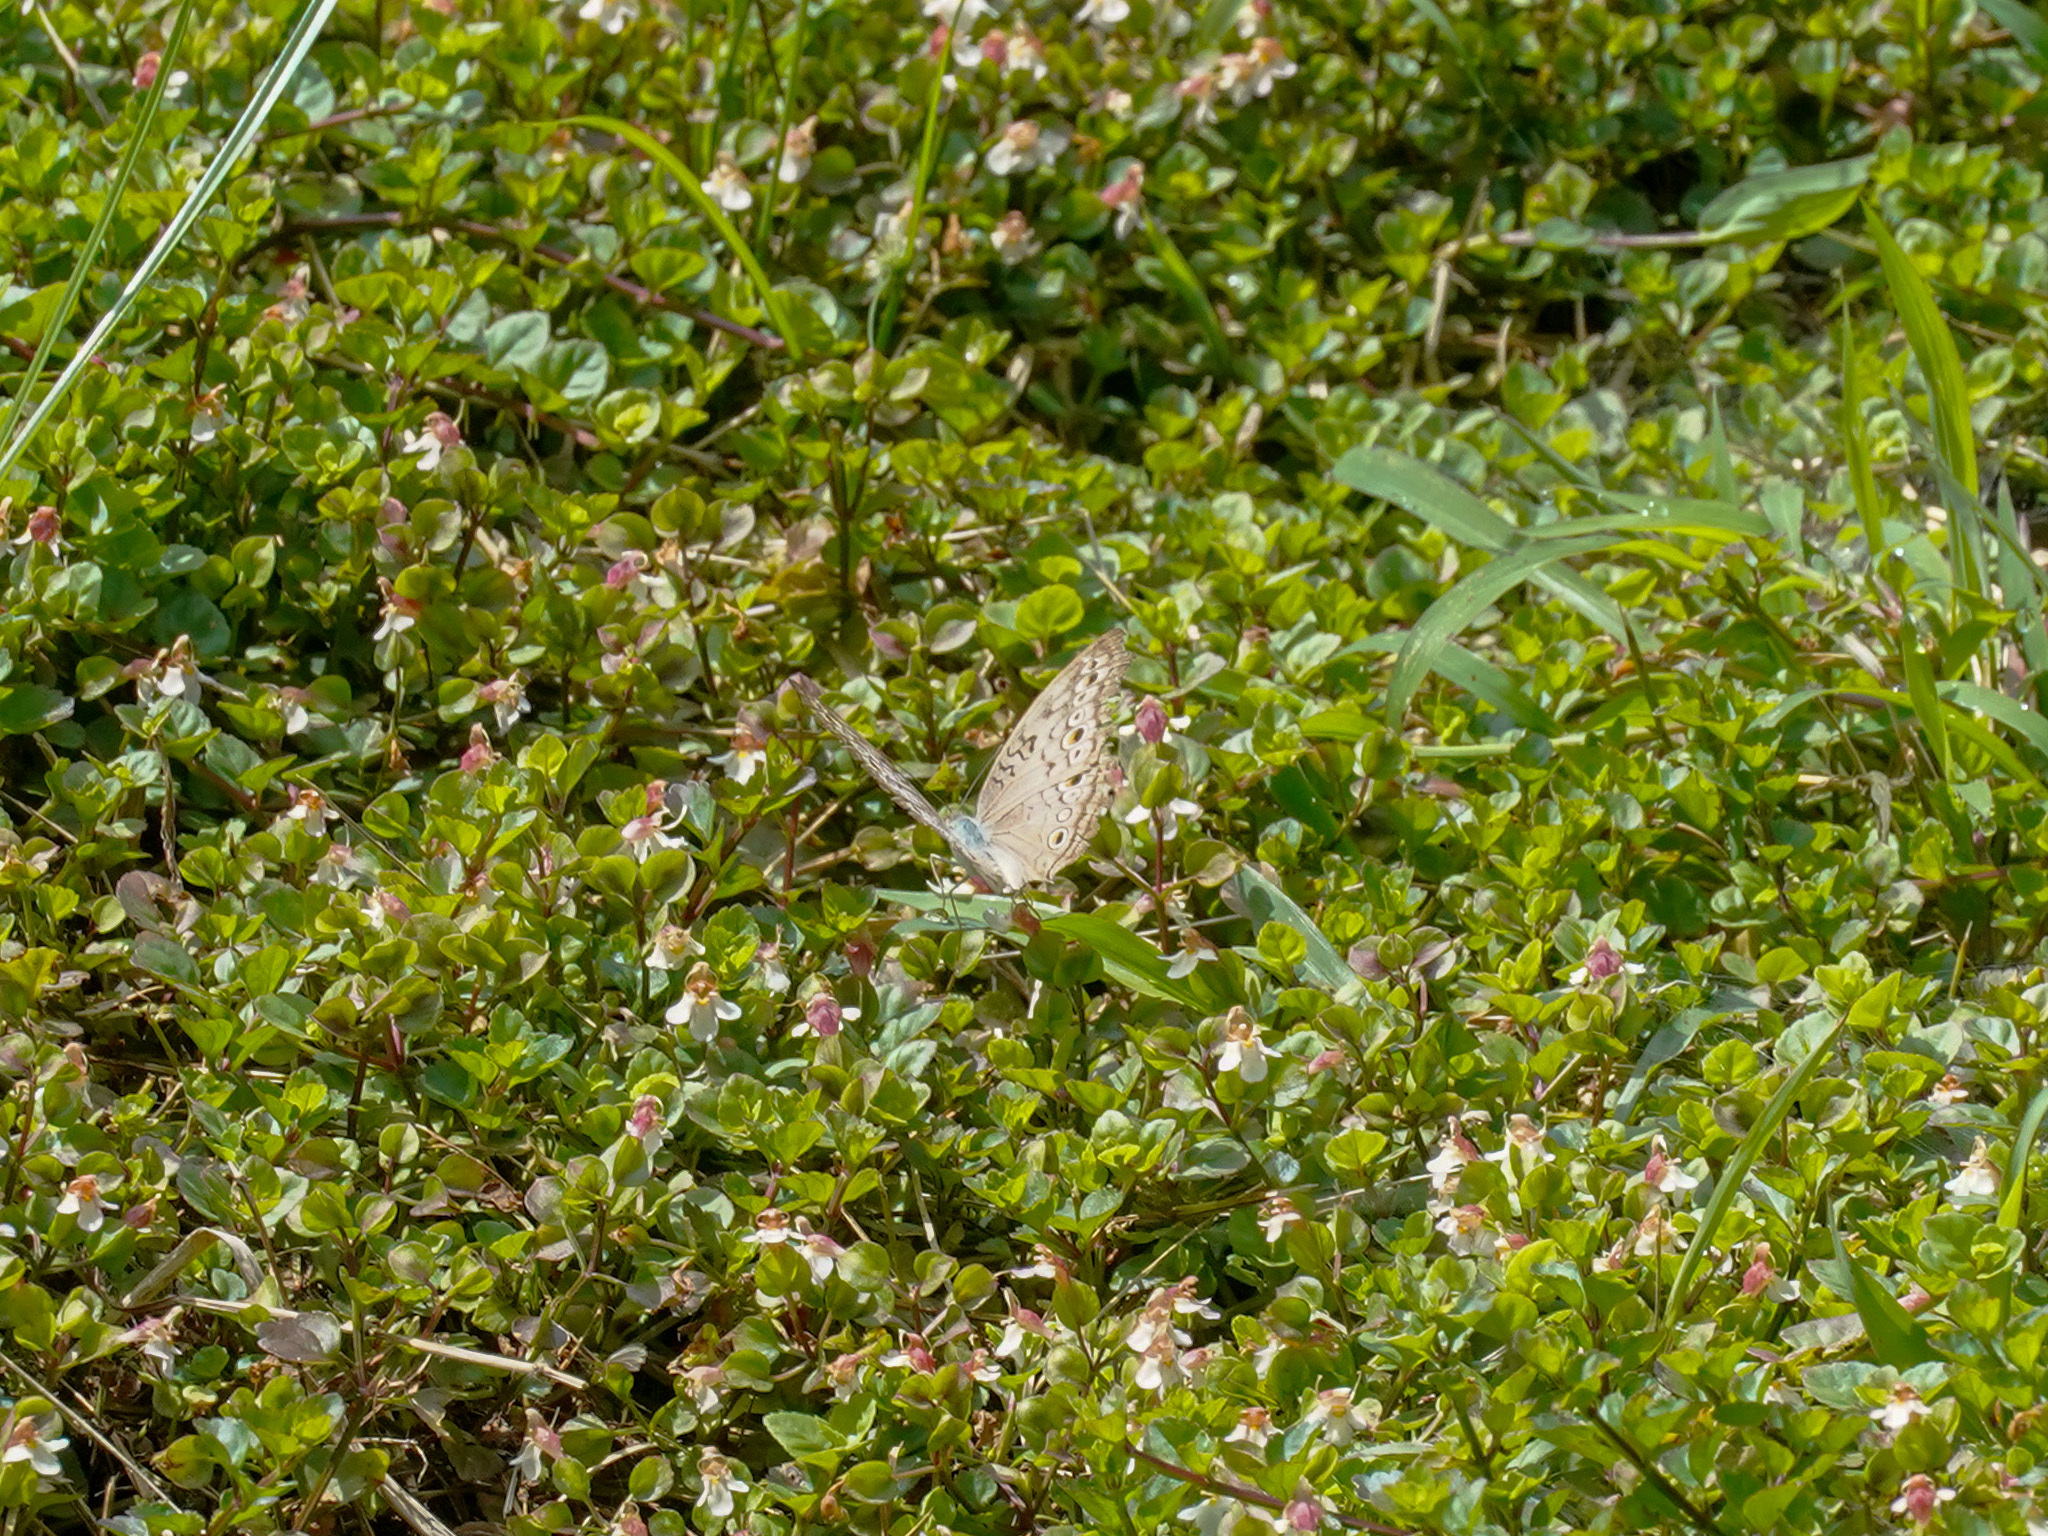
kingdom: Animalia
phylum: Arthropoda
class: Insecta
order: Lepidoptera
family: Nymphalidae
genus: Junonia
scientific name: Junonia atlites
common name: Grey pansy
